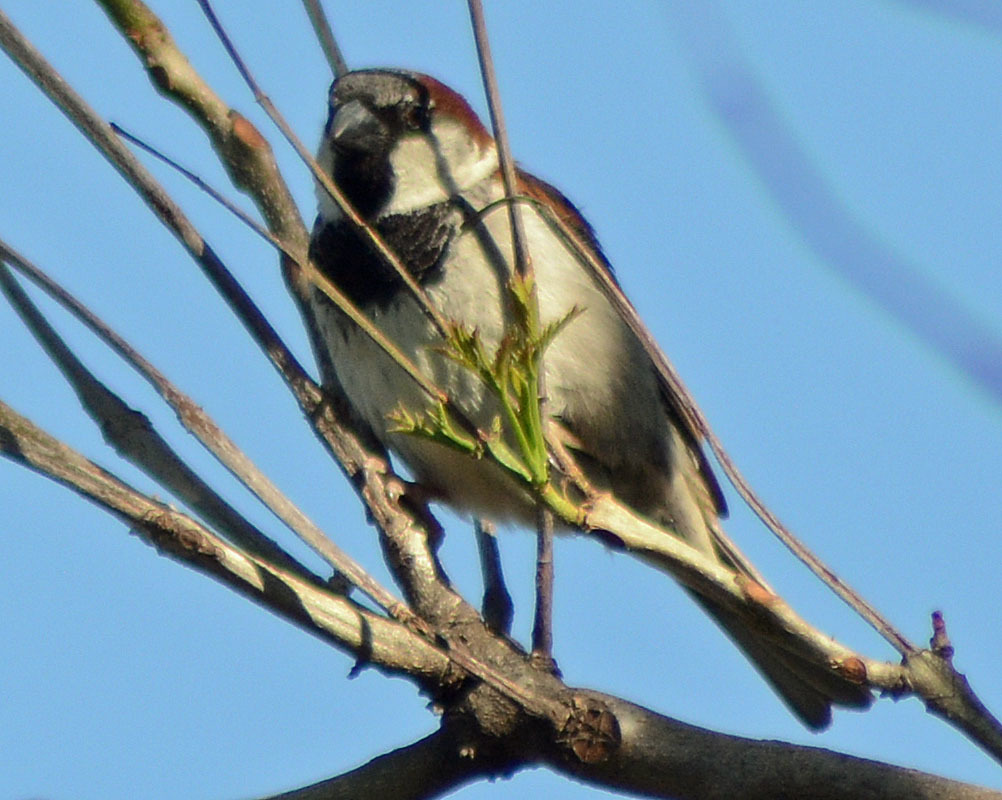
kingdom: Animalia
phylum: Chordata
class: Aves
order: Passeriformes
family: Passeridae
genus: Passer
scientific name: Passer domesticus
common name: House sparrow
